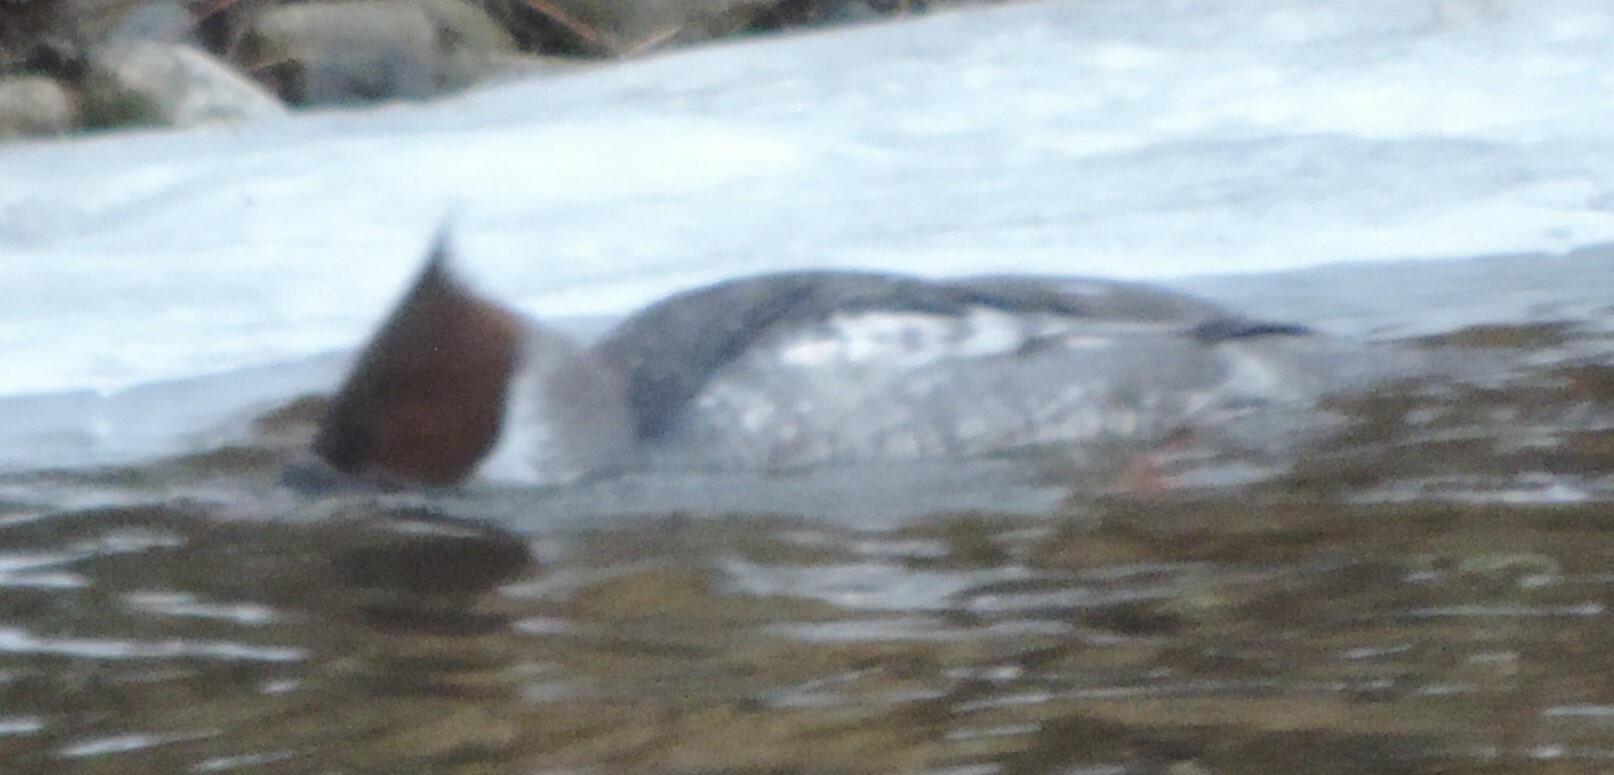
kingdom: Animalia
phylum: Chordata
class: Aves
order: Anseriformes
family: Anatidae
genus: Mergus
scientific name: Mergus merganser
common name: Common merganser
